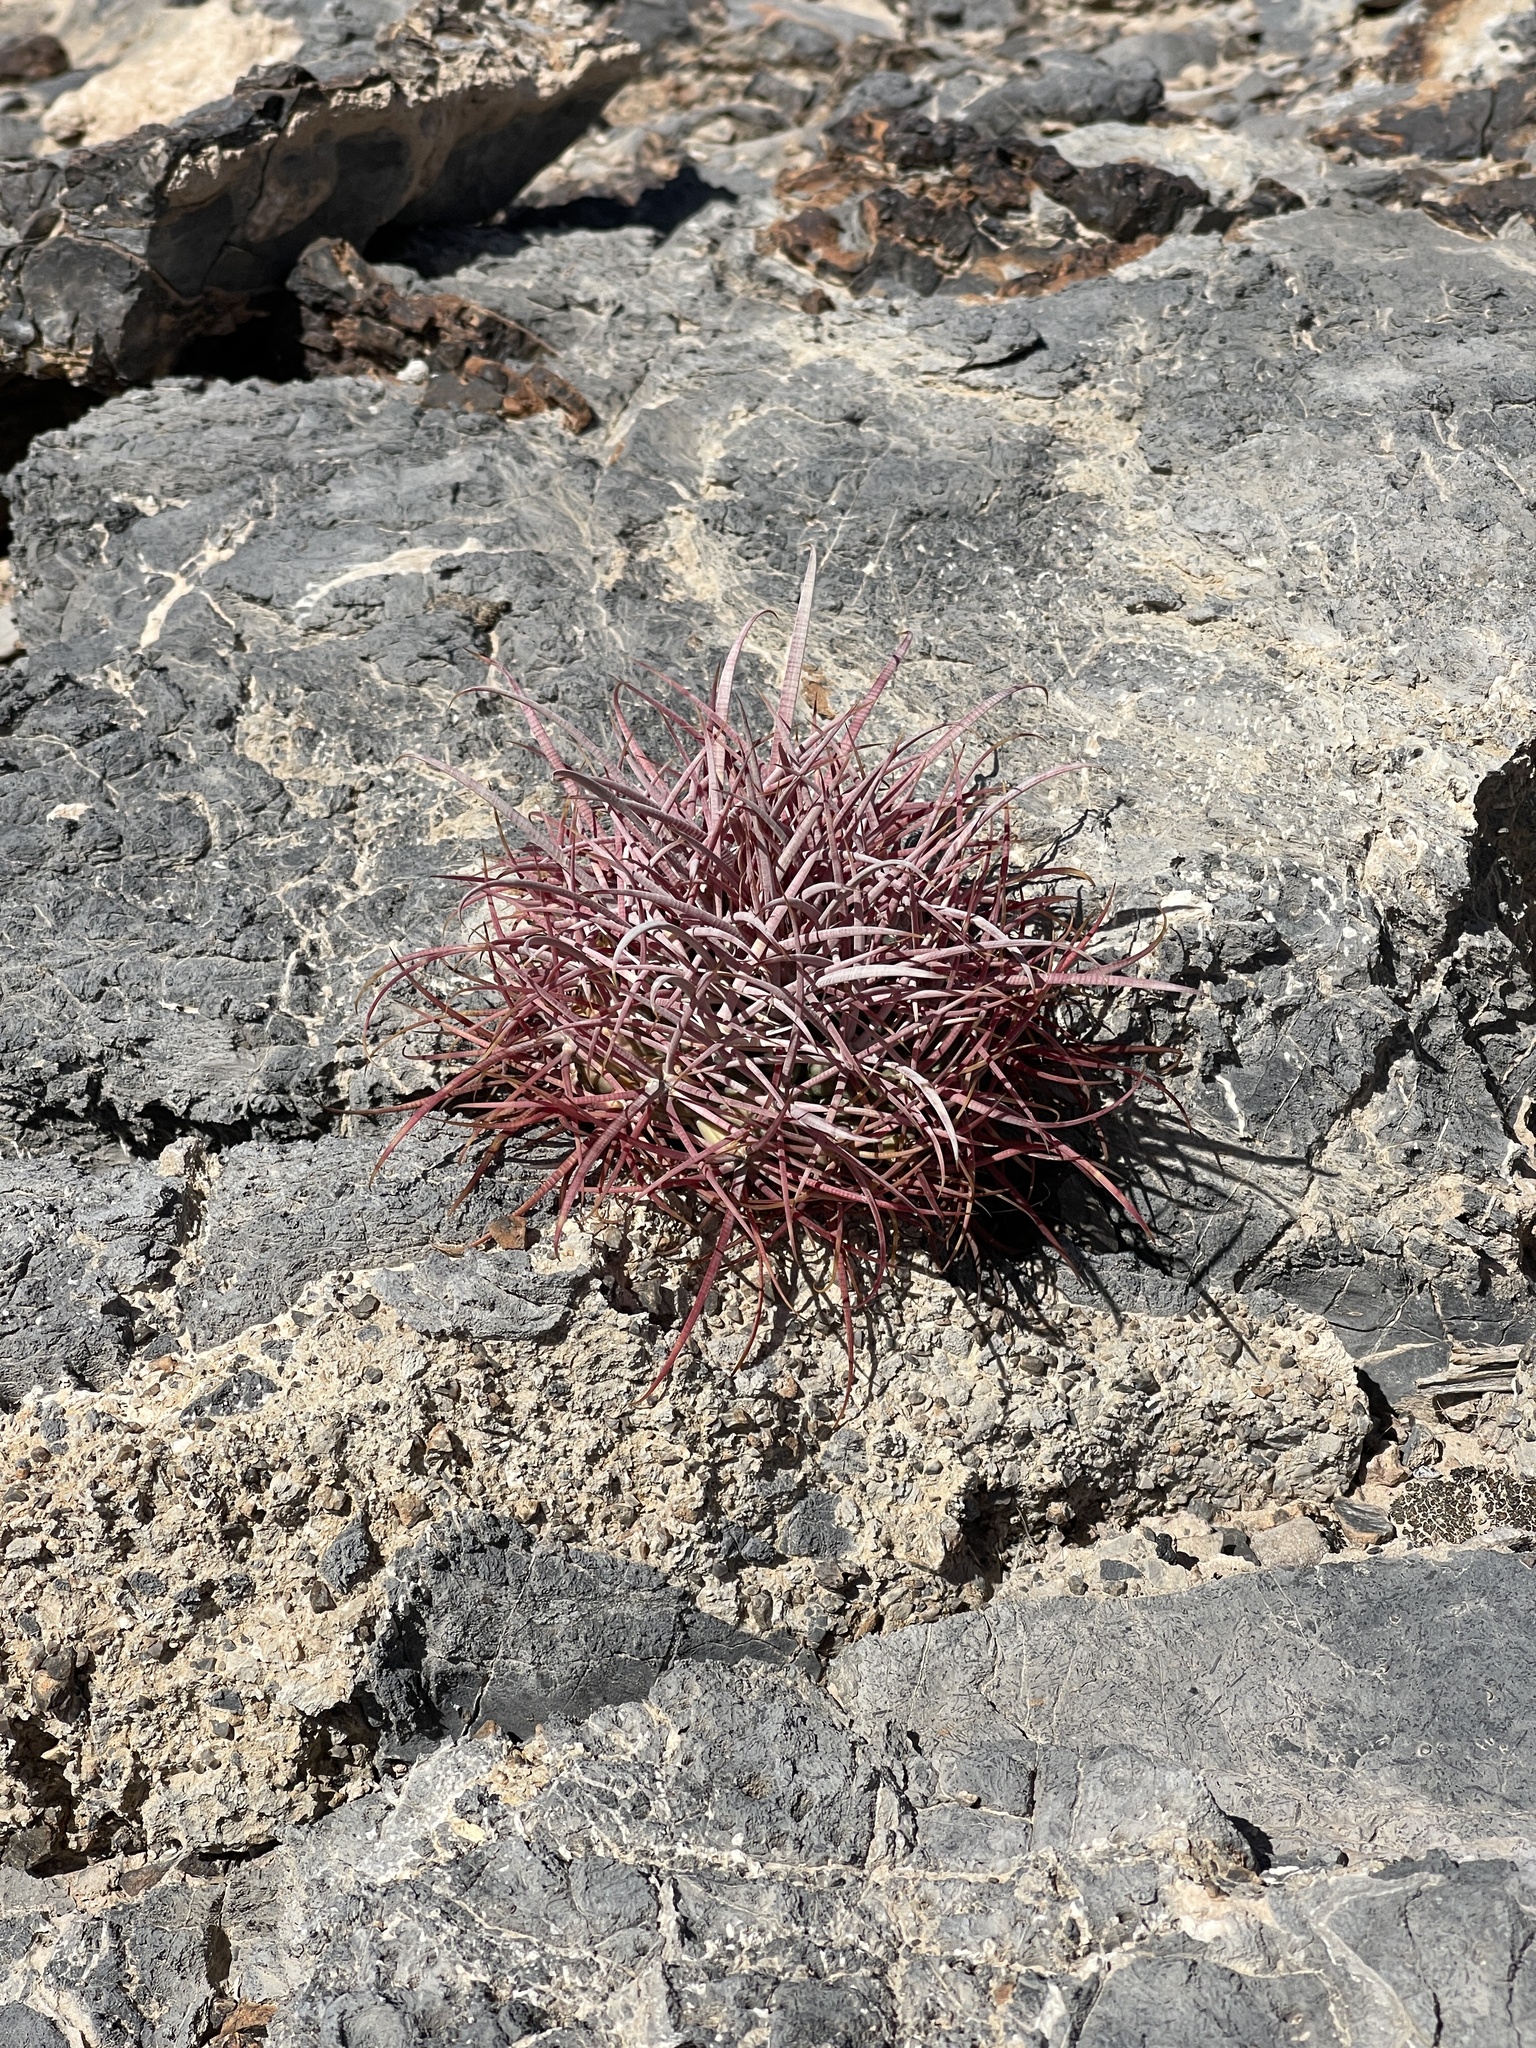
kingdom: Plantae
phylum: Tracheophyta
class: Magnoliopsida
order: Caryophyllales
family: Cactaceae
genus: Ferocactus
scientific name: Ferocactus cylindraceus
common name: California barrel cactus
